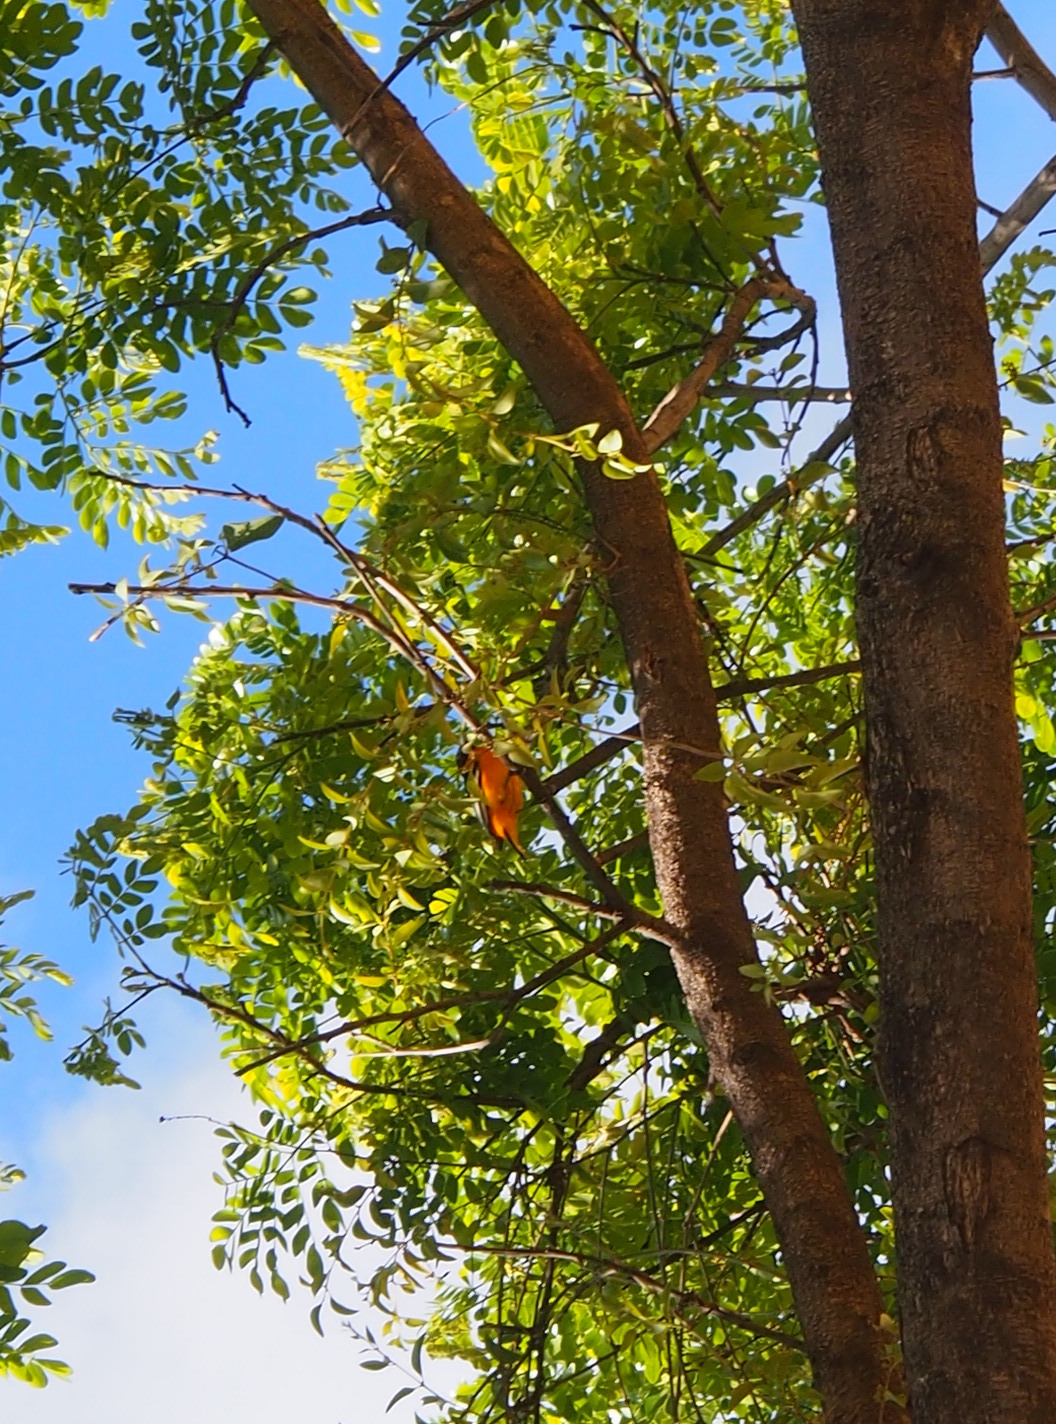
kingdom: Animalia
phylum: Chordata
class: Aves
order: Passeriformes
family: Icteridae
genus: Icterus
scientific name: Icterus galbula
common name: Baltimore oriole
